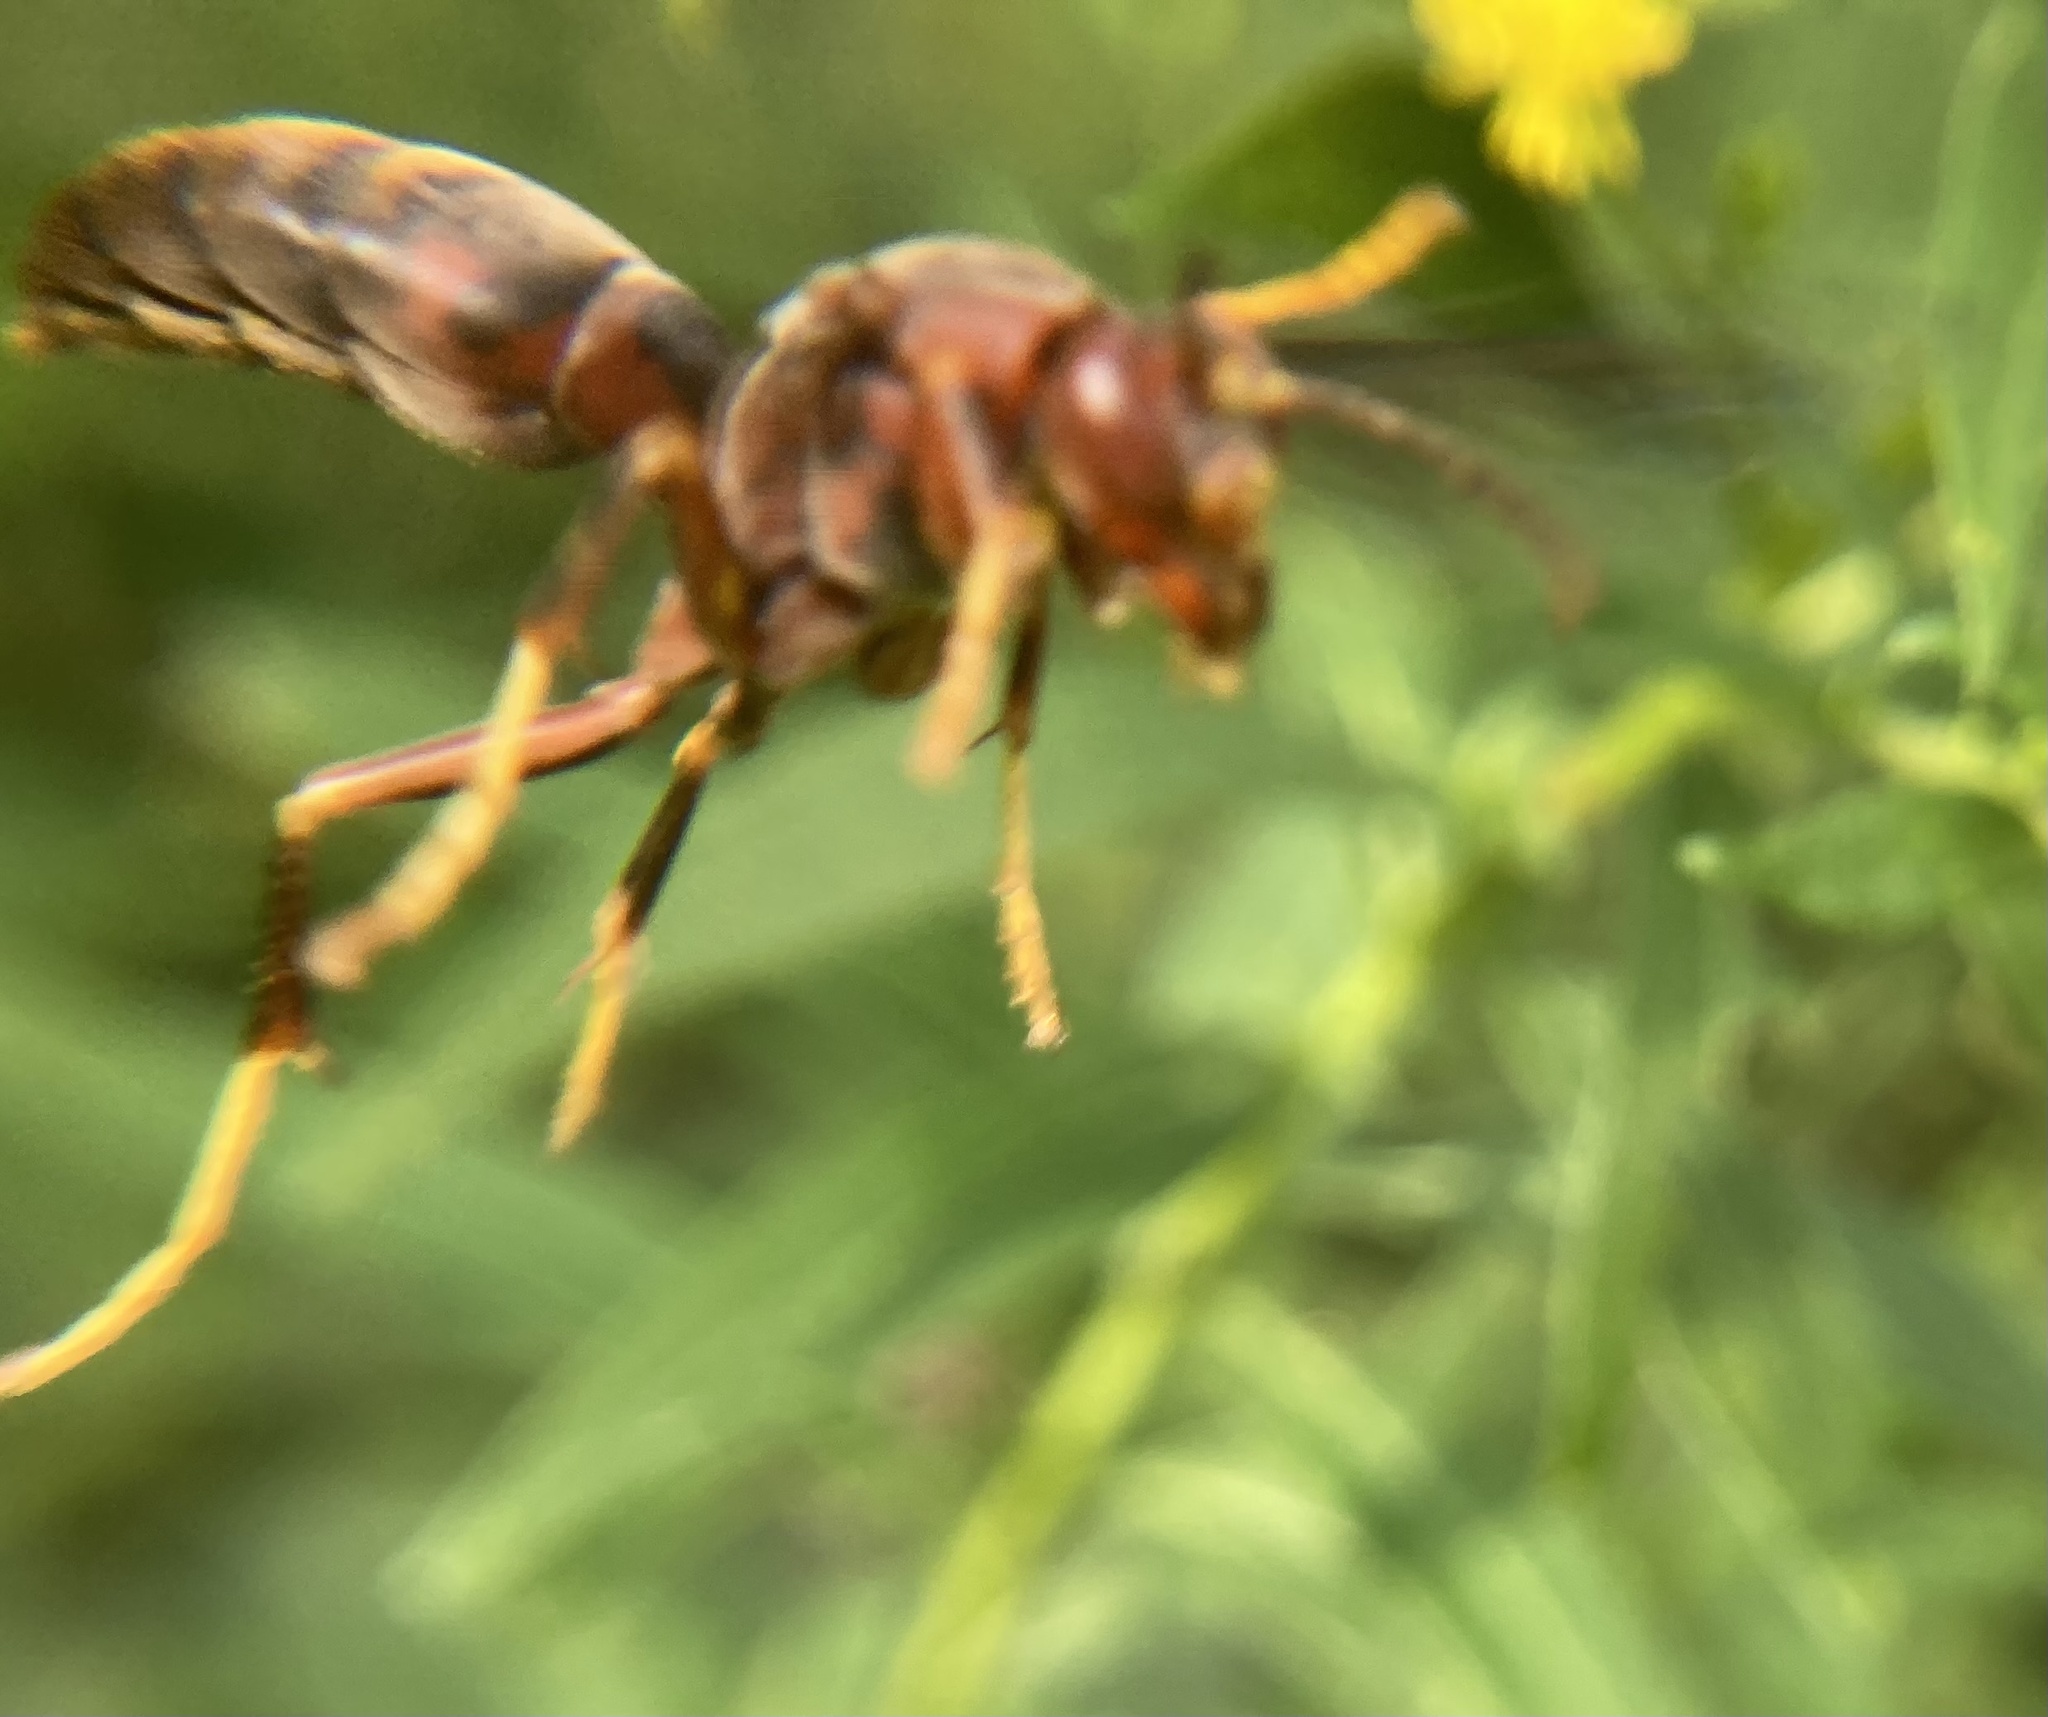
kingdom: Animalia
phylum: Arthropoda
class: Insecta
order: Hymenoptera
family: Eumenidae
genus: Polistes
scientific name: Polistes metricus
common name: Metric paper wasp
